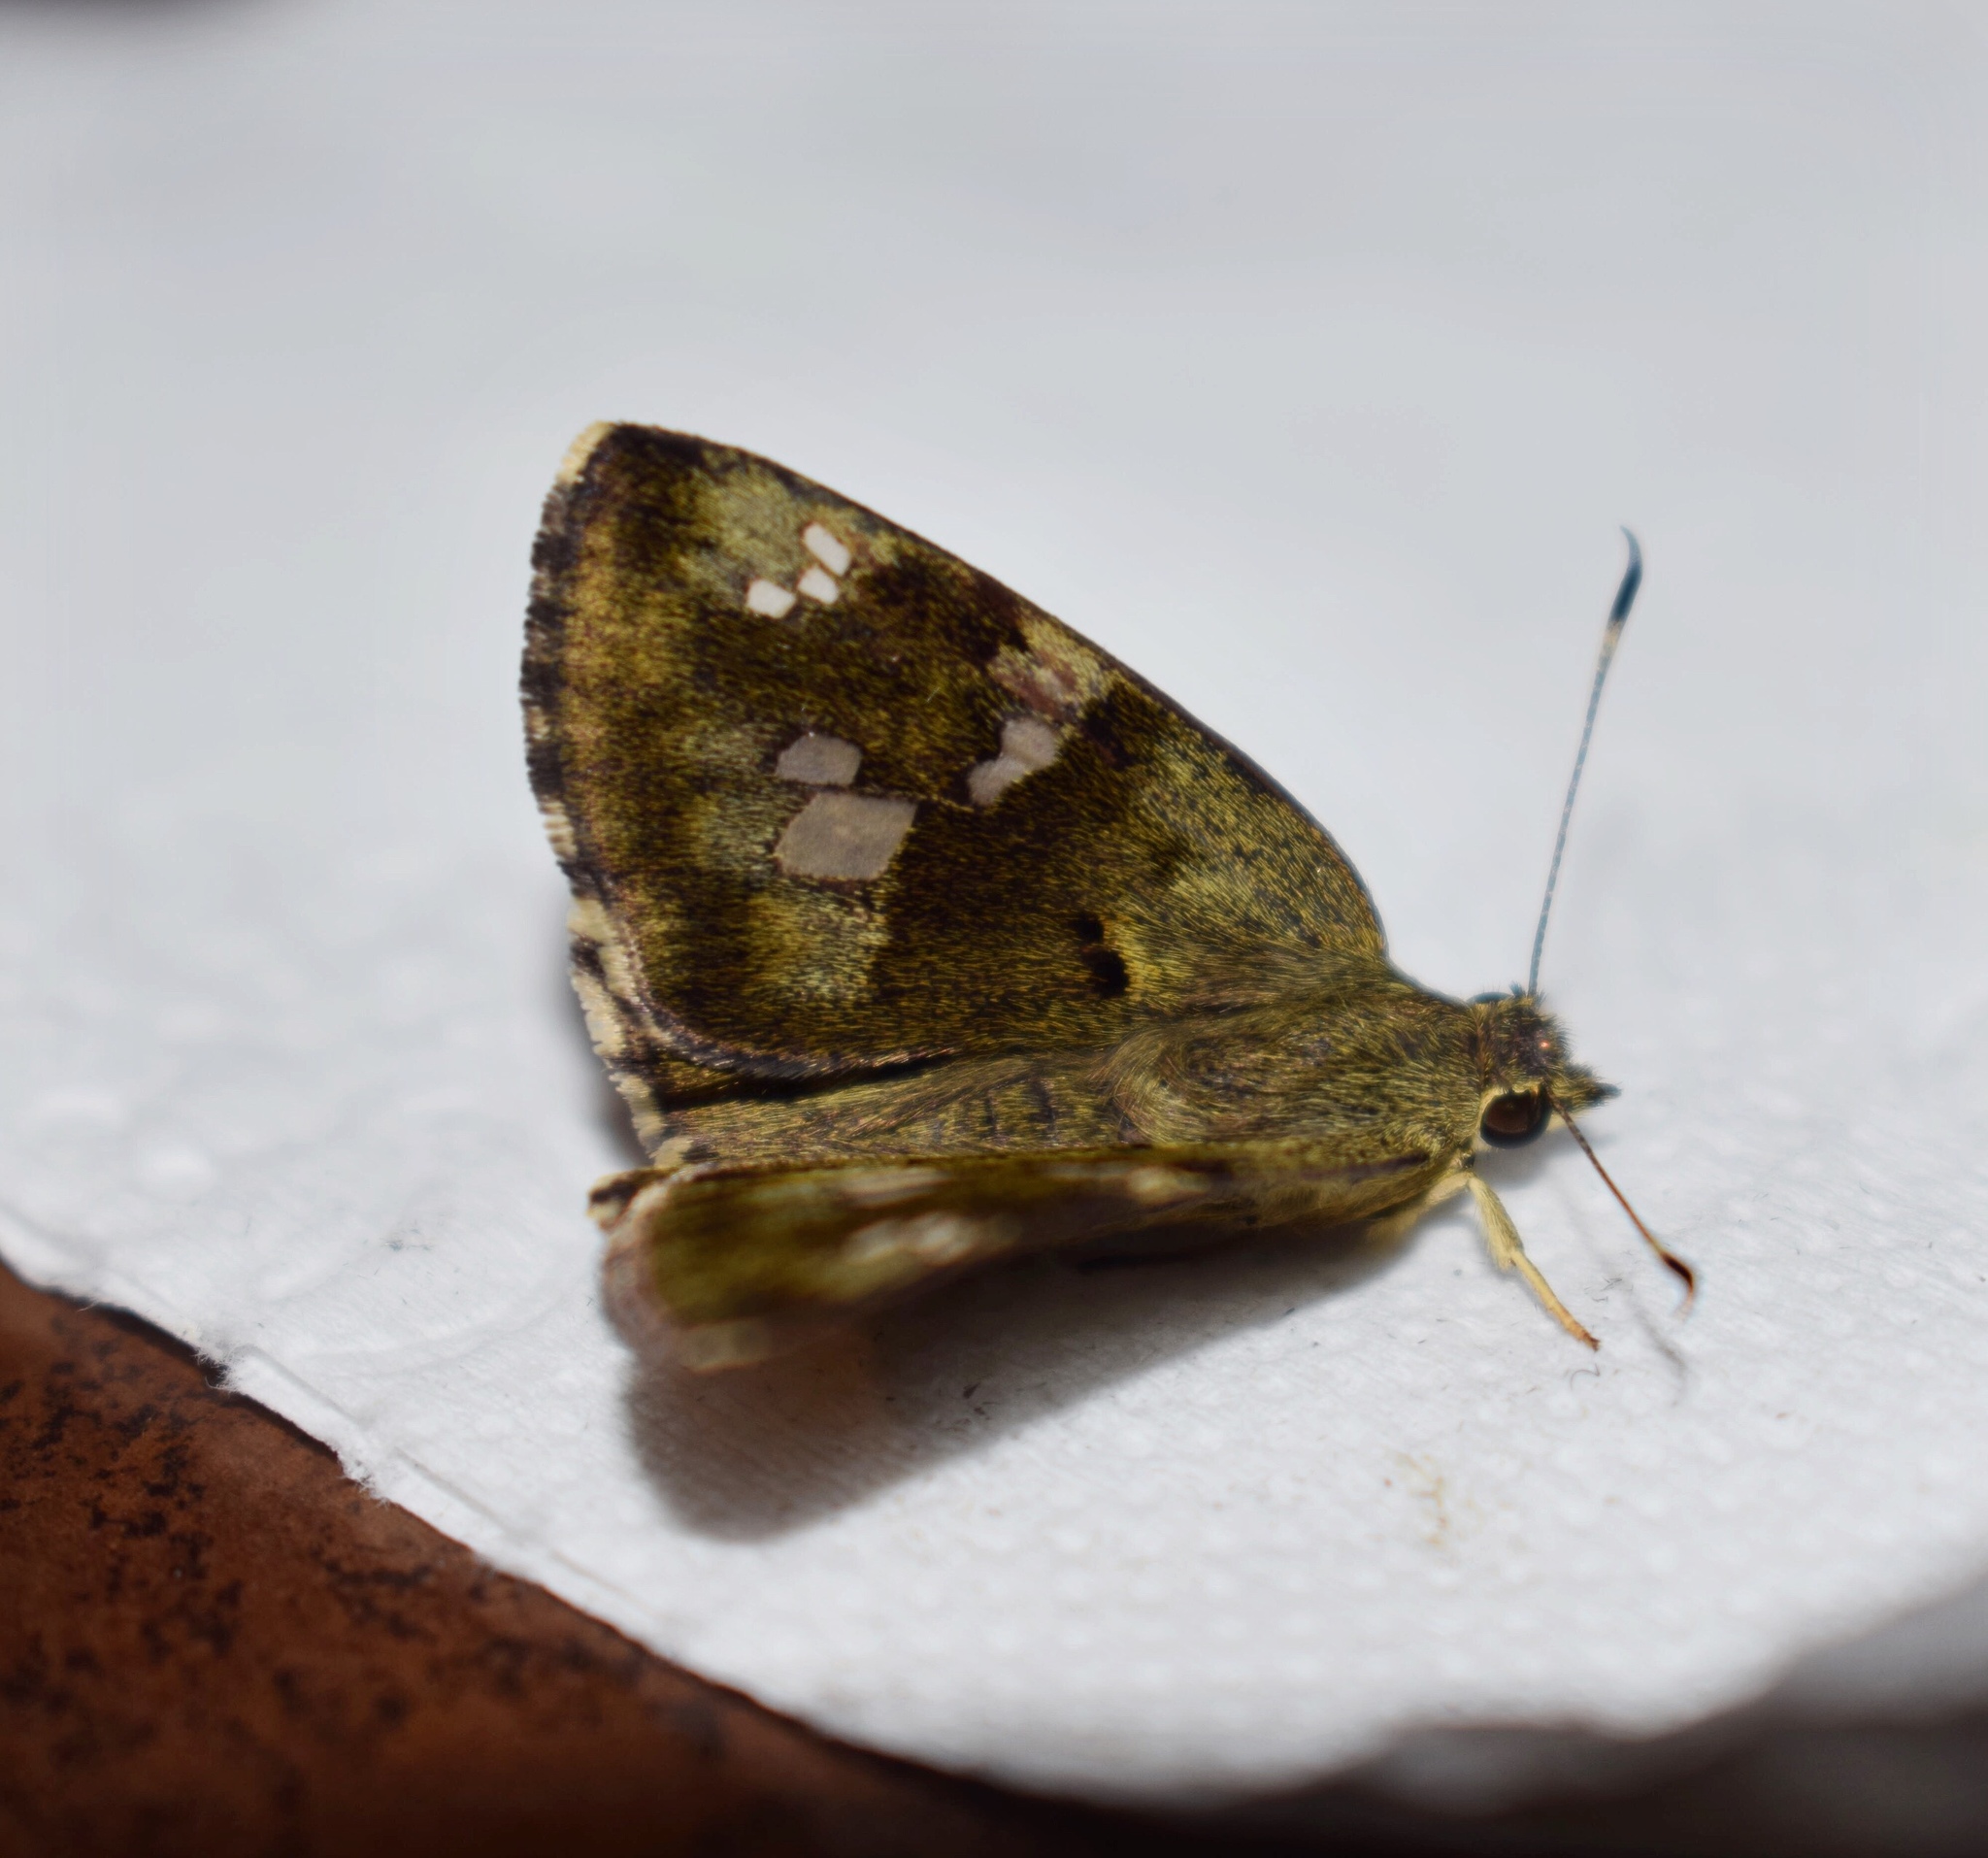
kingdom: Animalia
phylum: Arthropoda
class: Insecta
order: Lepidoptera
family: Hesperiidae
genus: Sarangesa
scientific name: Sarangesa motozi
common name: Forest elfin
